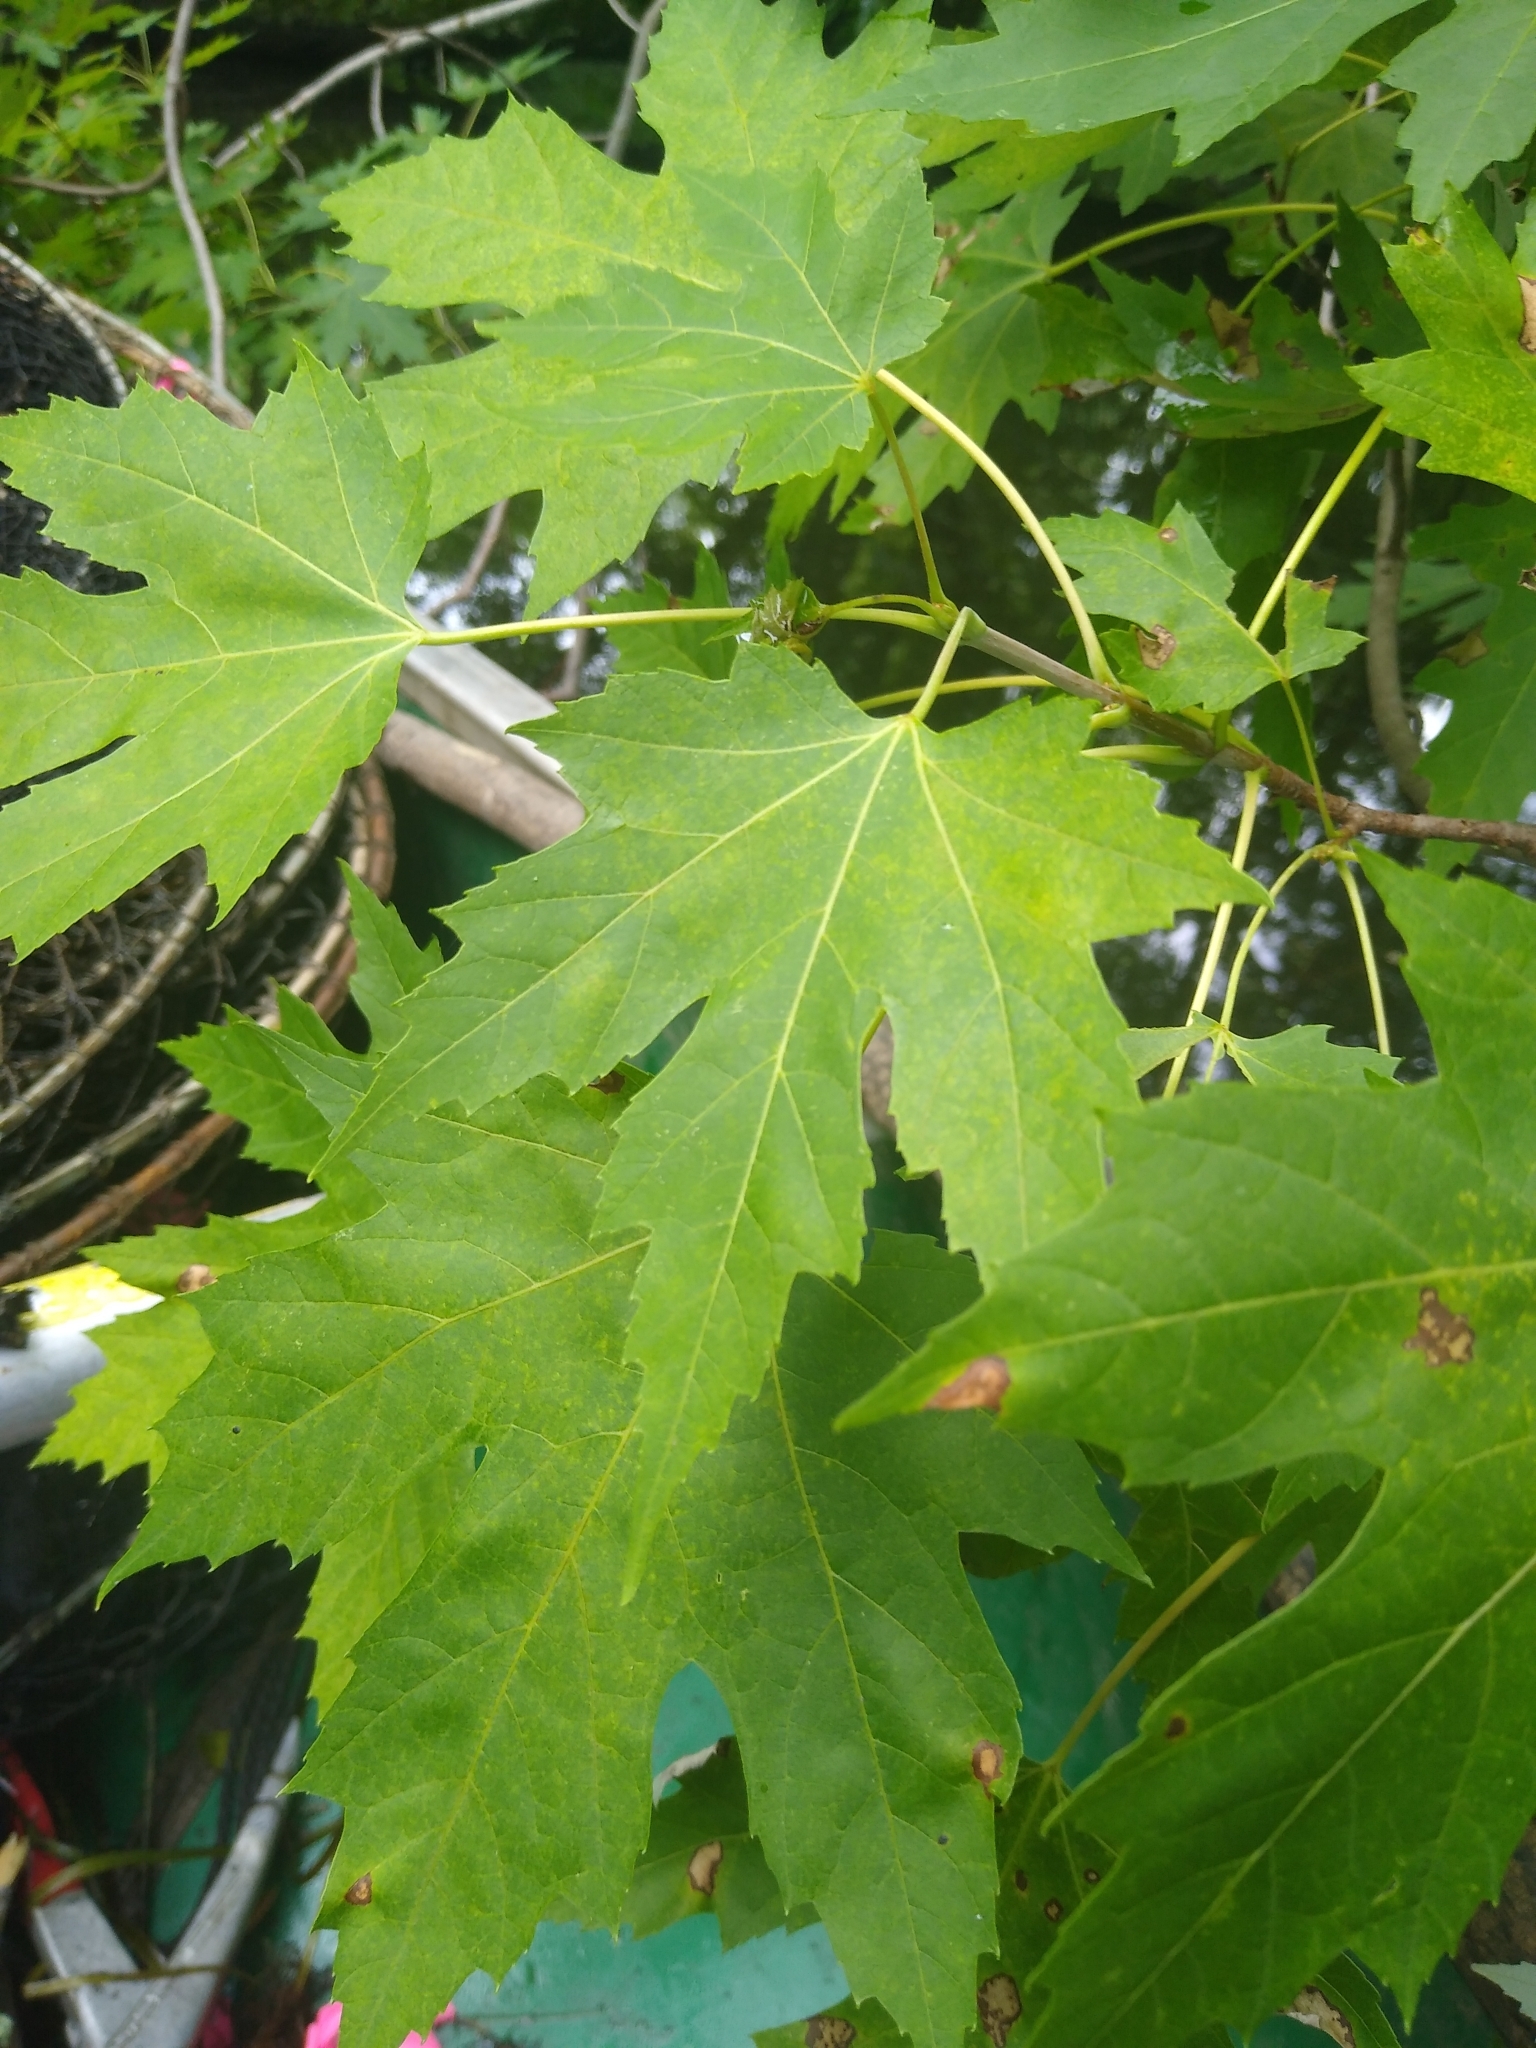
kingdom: Plantae
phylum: Tracheophyta
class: Magnoliopsida
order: Sapindales
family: Sapindaceae
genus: Acer
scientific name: Acer saccharinum
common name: Silver maple
